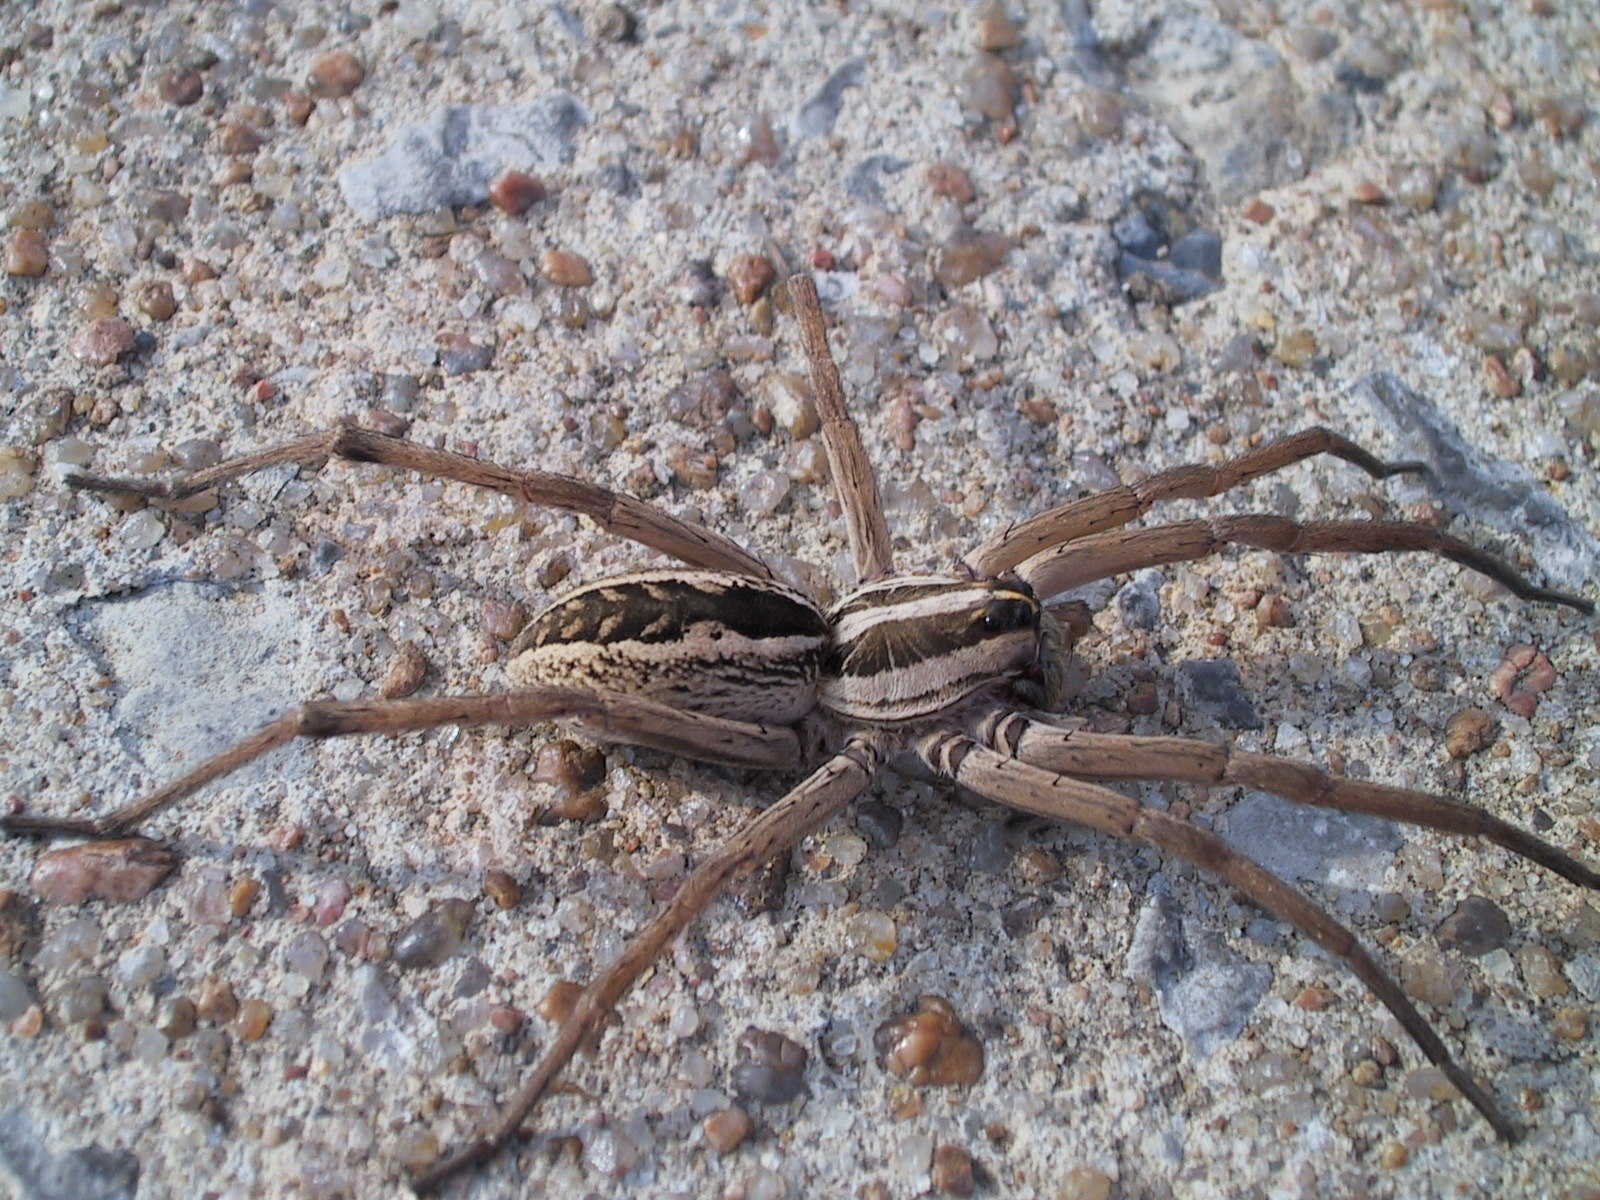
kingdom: Animalia
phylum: Arthropoda
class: Arachnida
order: Araneae
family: Lycosidae
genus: Rabidosa
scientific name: Rabidosa rabida
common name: Rabid wolf spider
